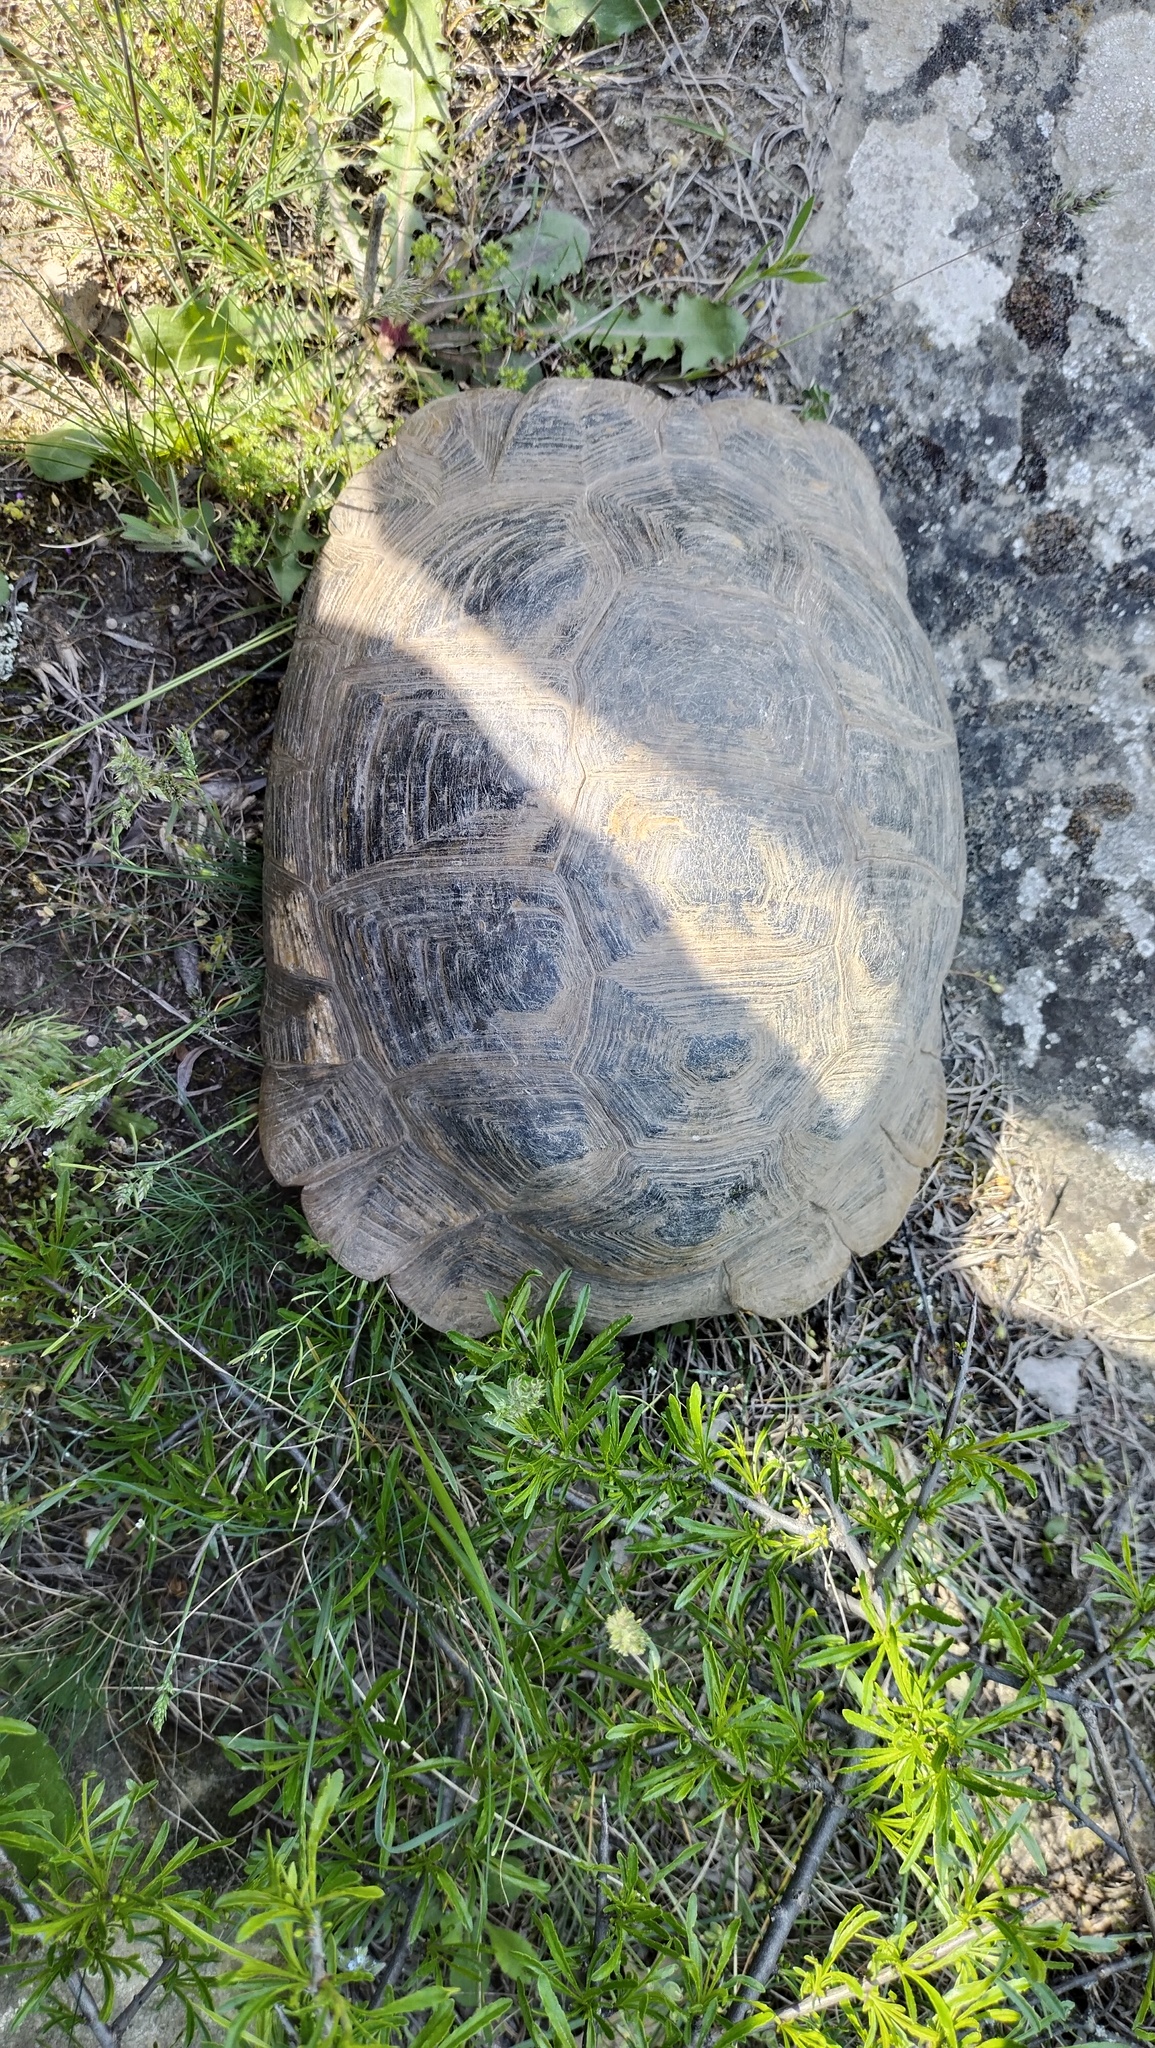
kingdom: Animalia
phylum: Chordata
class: Testudines
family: Testudinidae
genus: Testudo
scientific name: Testudo graeca
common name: Common tortoise
